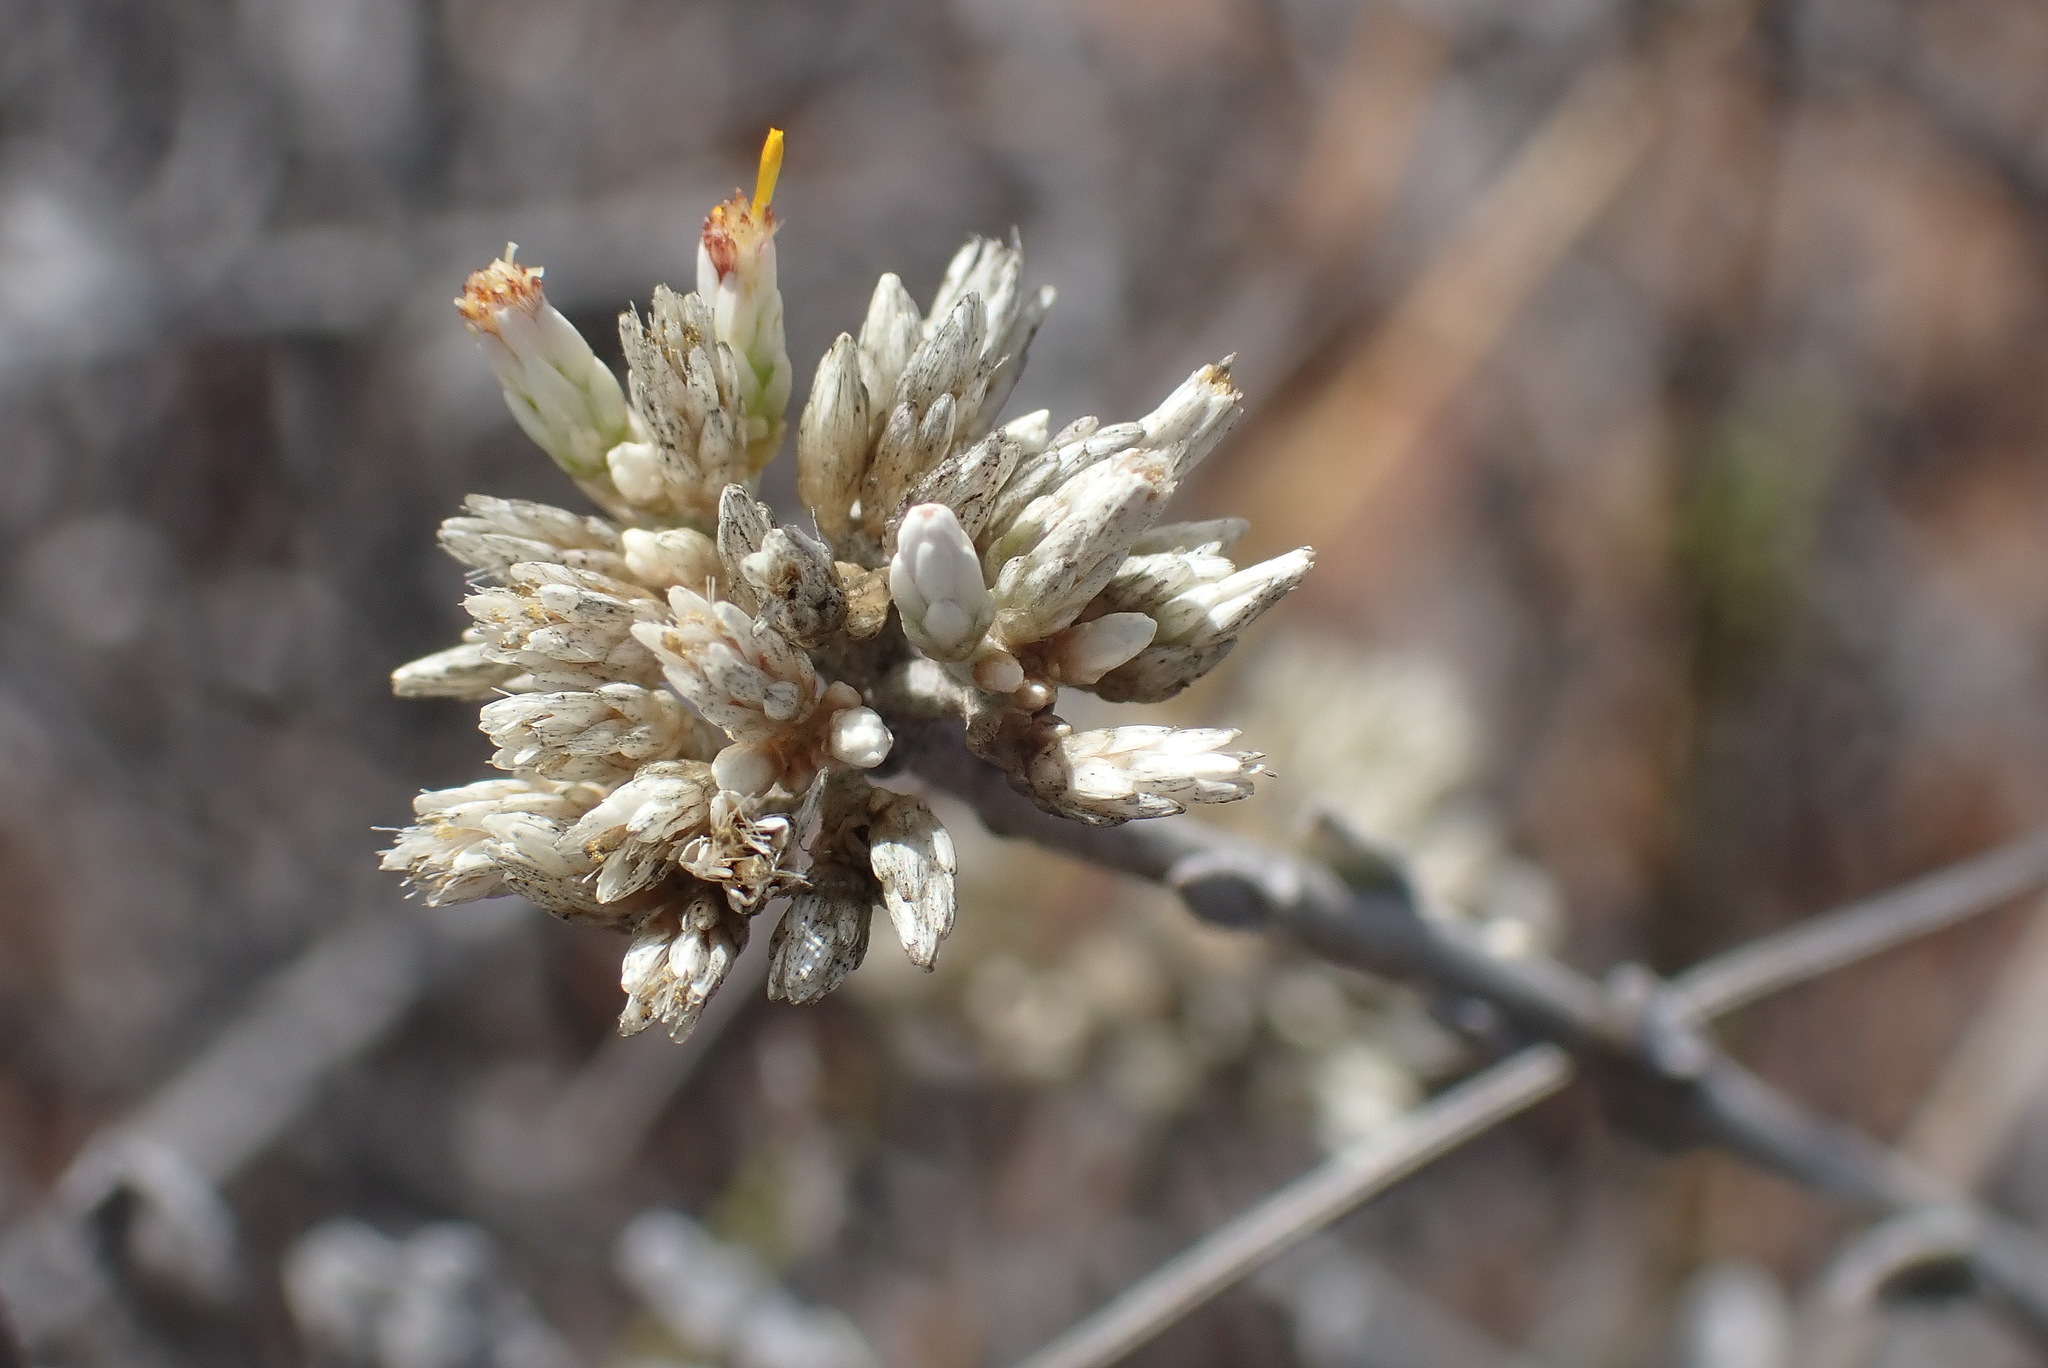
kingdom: Plantae
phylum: Tracheophyta
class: Magnoliopsida
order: Asterales
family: Asteraceae
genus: Helichrysum
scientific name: Helichrysum zeyheri
